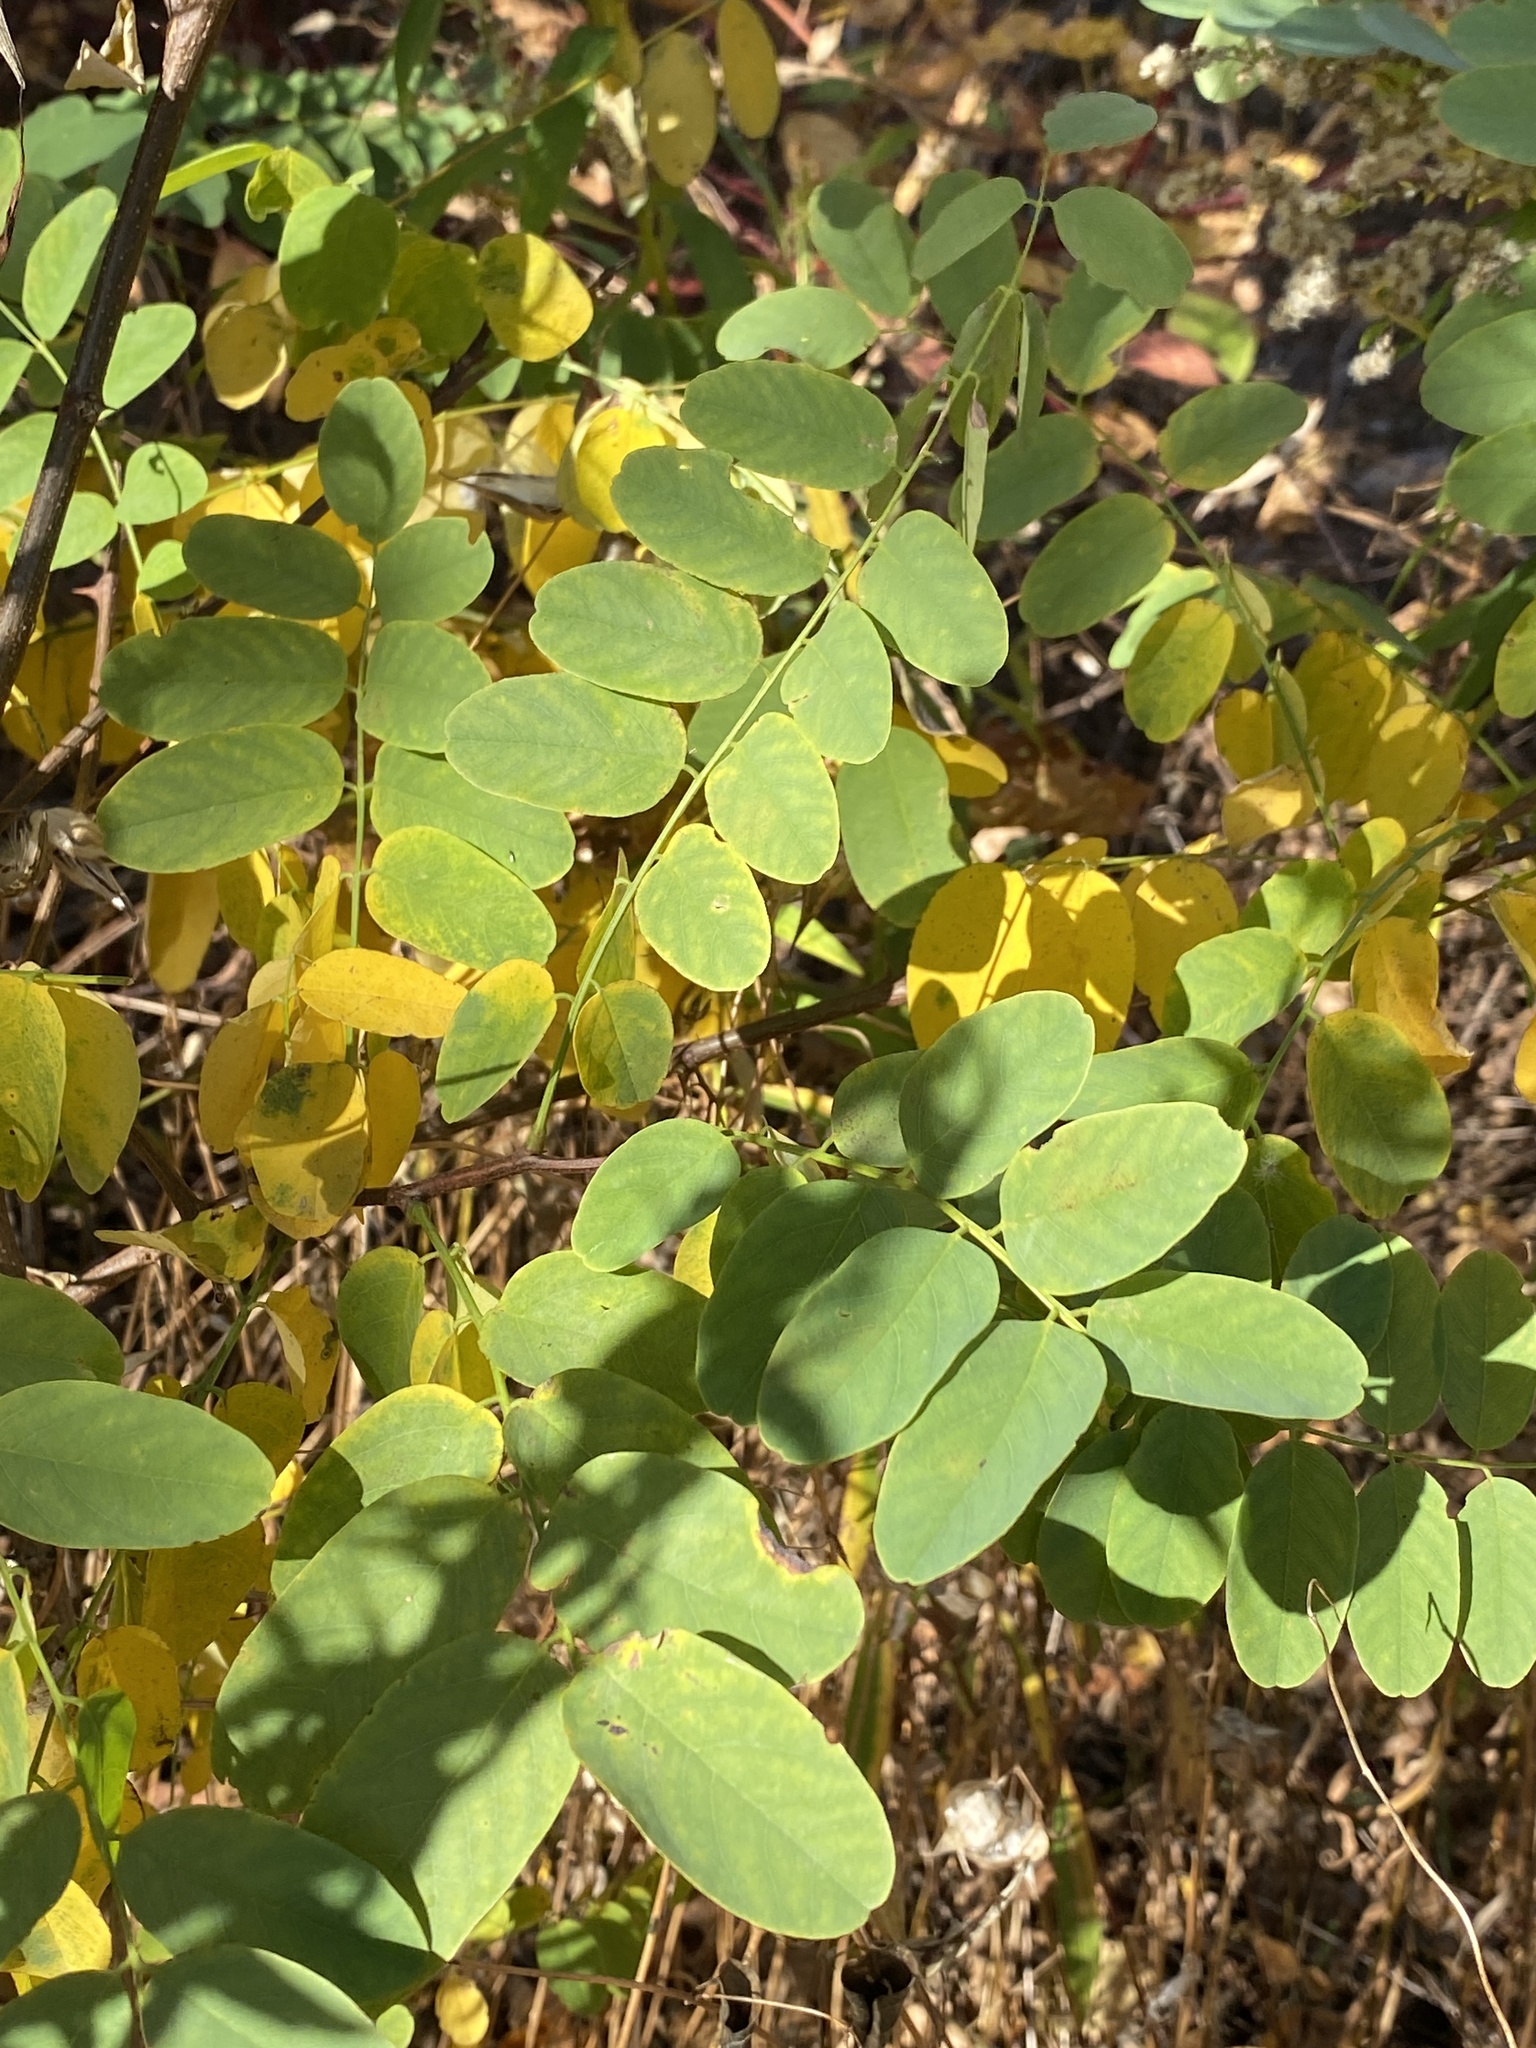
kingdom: Plantae
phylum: Tracheophyta
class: Magnoliopsida
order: Fabales
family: Fabaceae
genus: Robinia
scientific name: Robinia pseudoacacia
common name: Black locust
